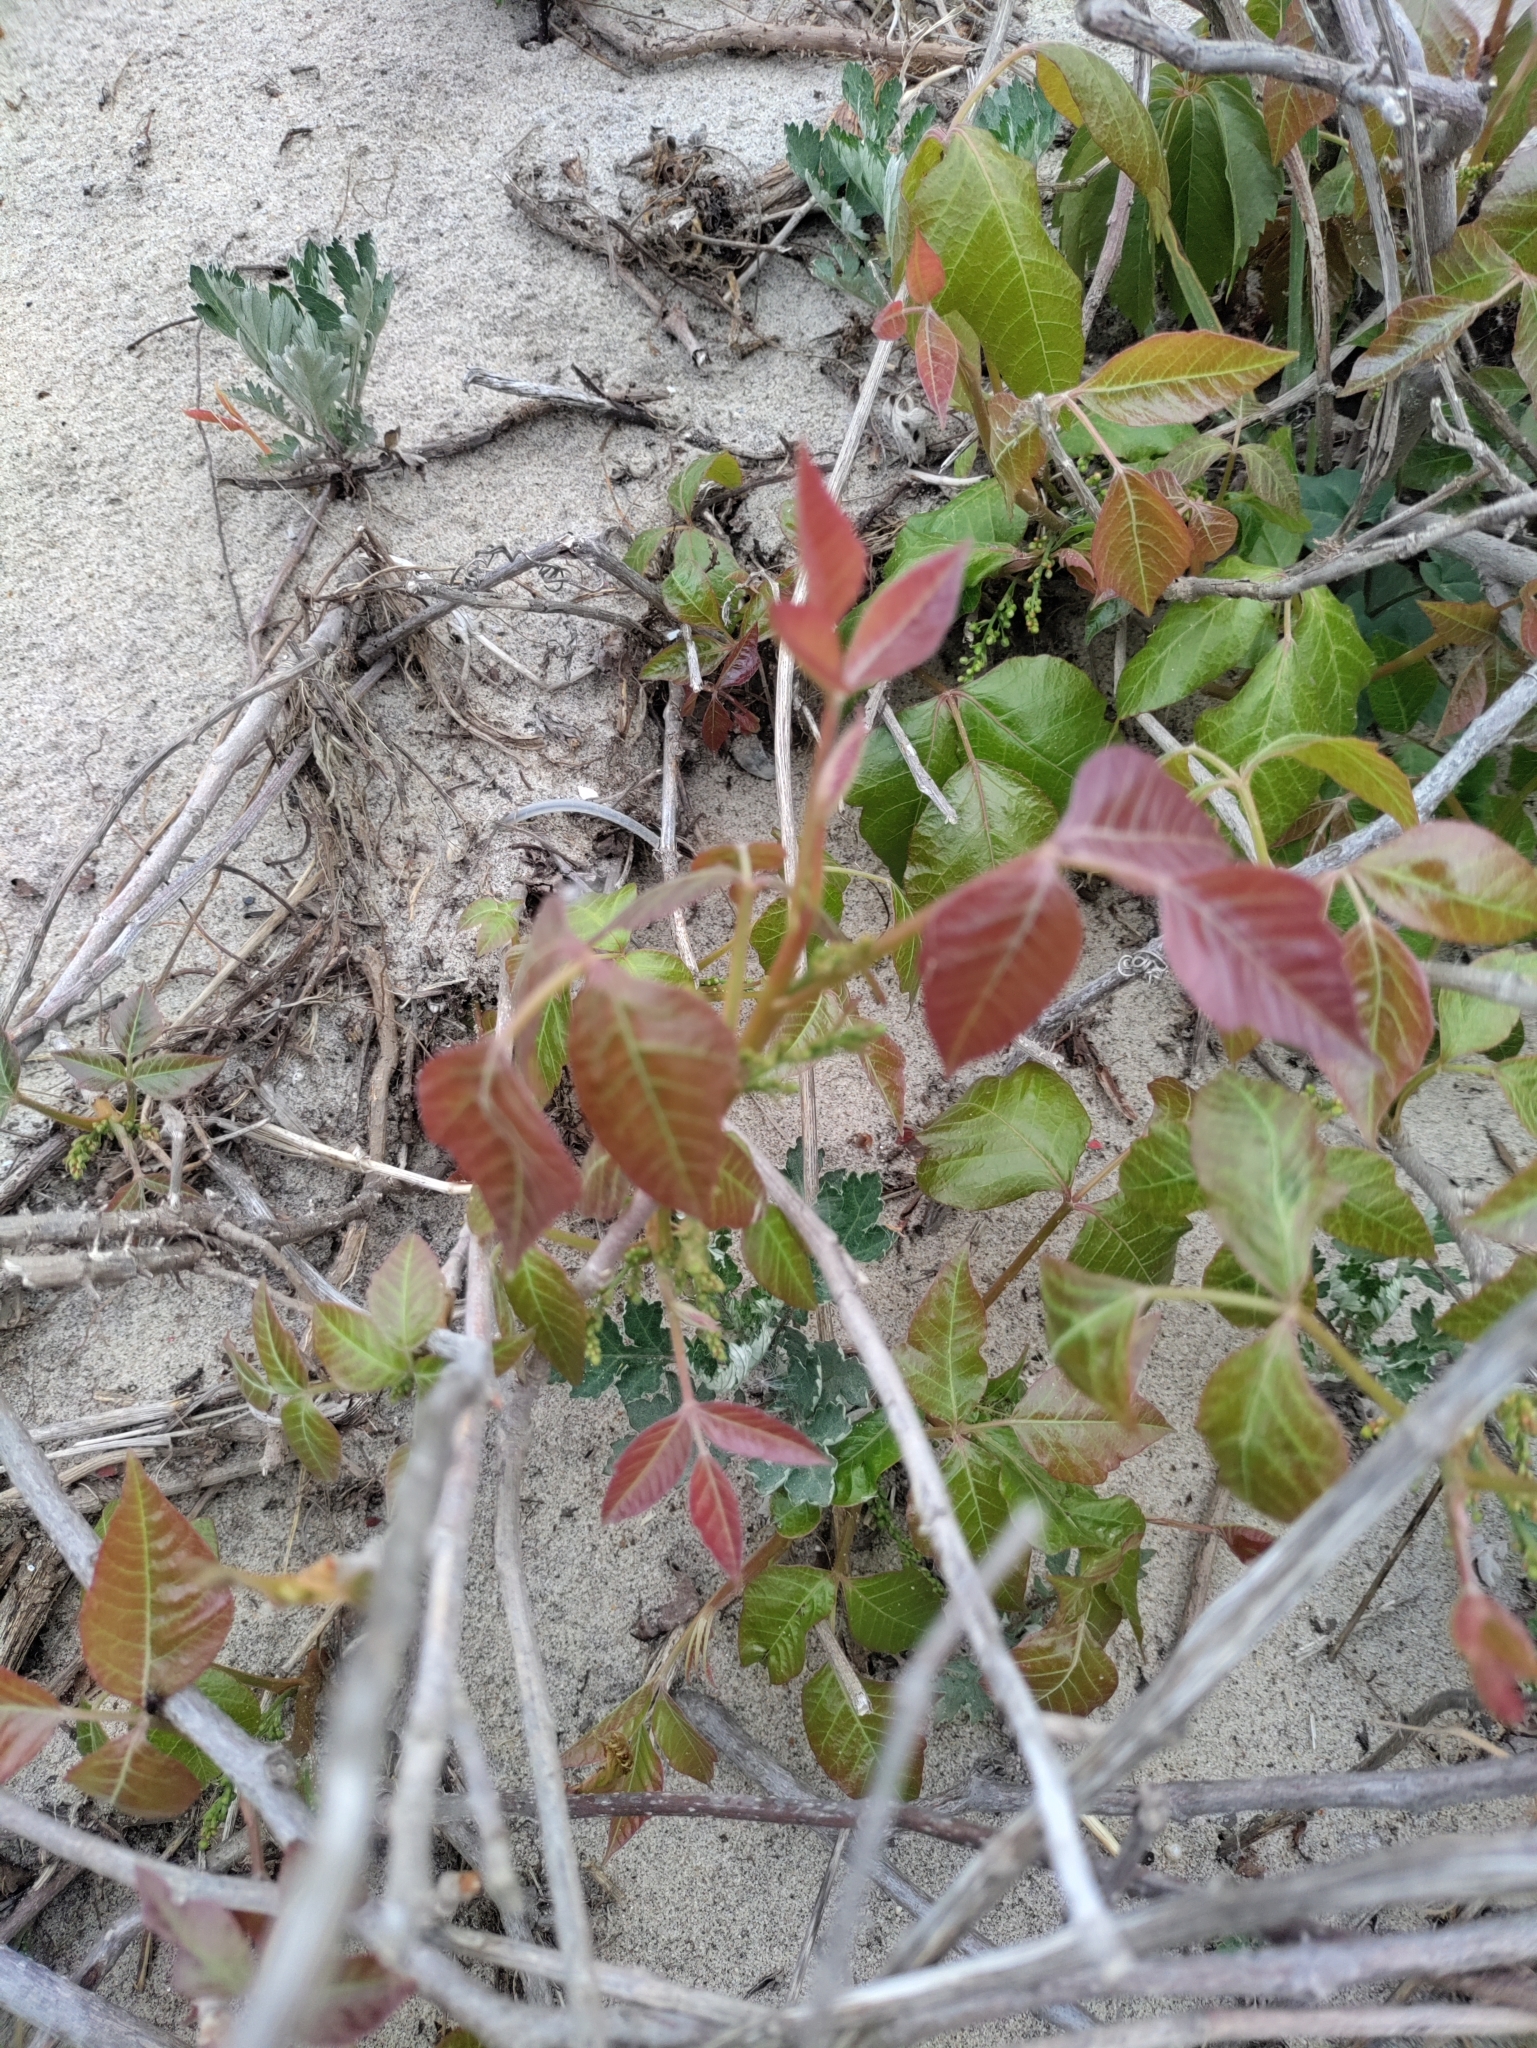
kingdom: Plantae
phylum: Tracheophyta
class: Magnoliopsida
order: Sapindales
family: Anacardiaceae
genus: Toxicodendron
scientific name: Toxicodendron radicans
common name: Poison ivy
